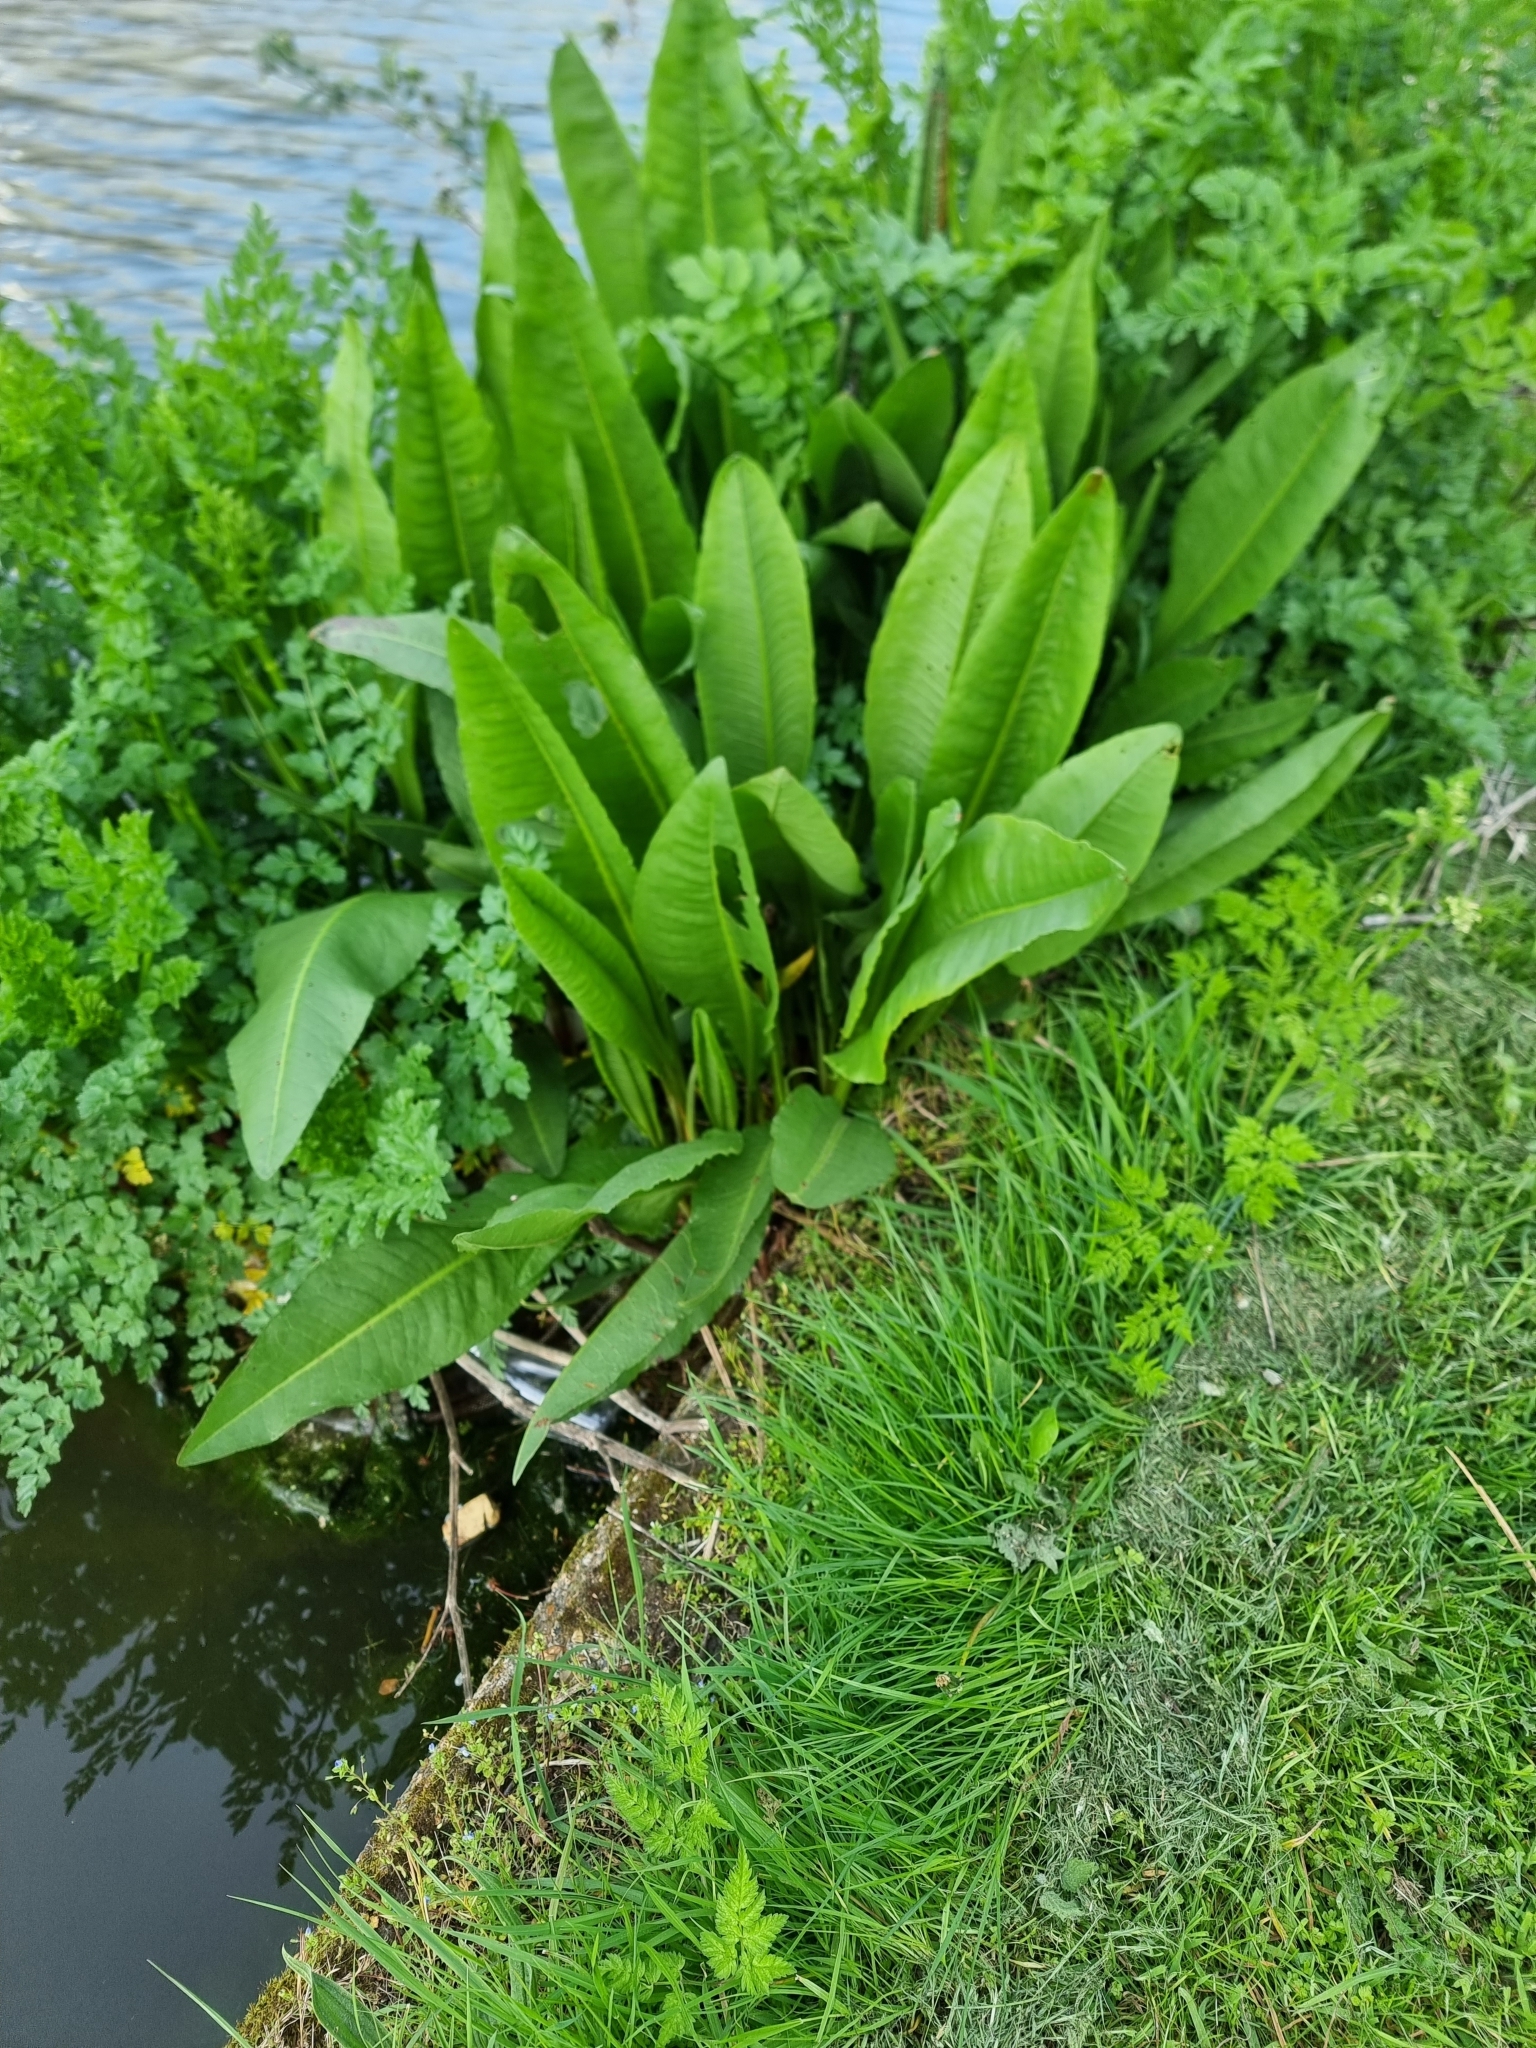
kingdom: Plantae
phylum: Tracheophyta
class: Magnoliopsida
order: Caryophyllales
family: Polygonaceae
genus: Rumex
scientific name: Rumex hydrolapathum
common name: Water dock
